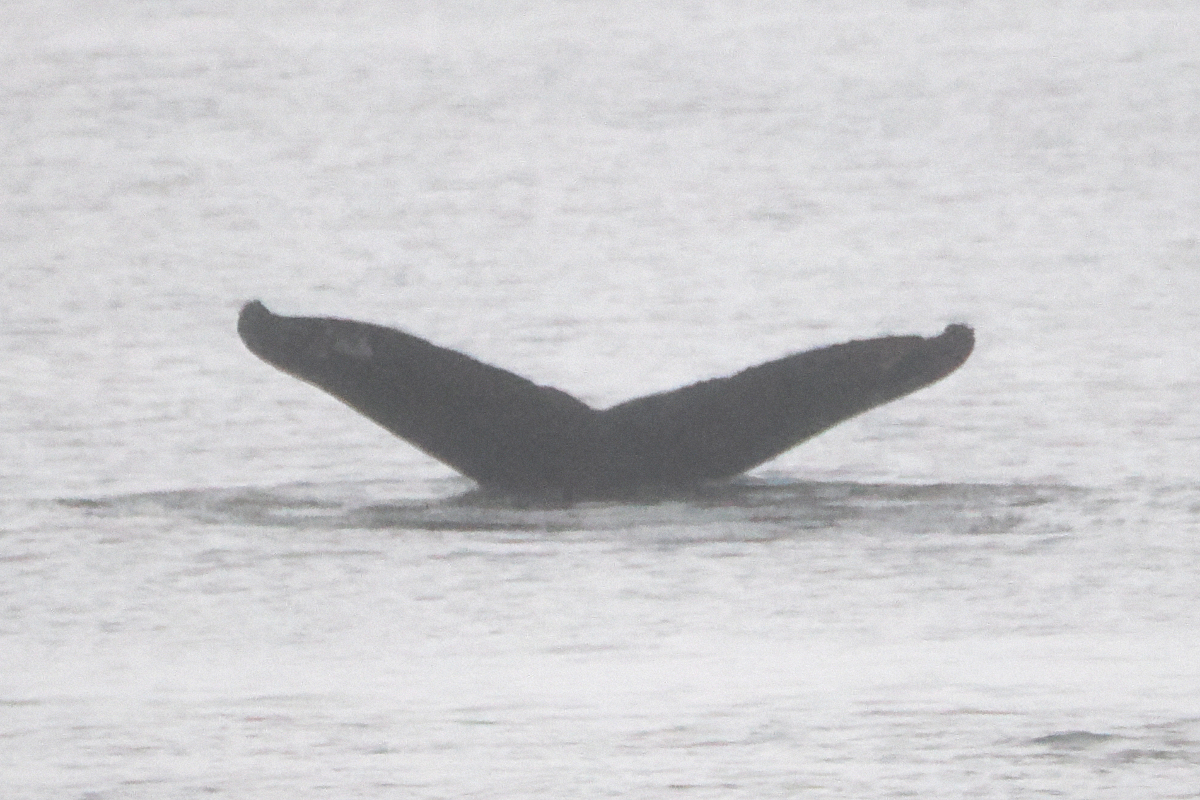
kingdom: Animalia
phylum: Chordata
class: Mammalia
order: Cetacea
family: Balaenopteridae
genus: Megaptera
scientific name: Megaptera novaeangliae
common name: Humpback whale
